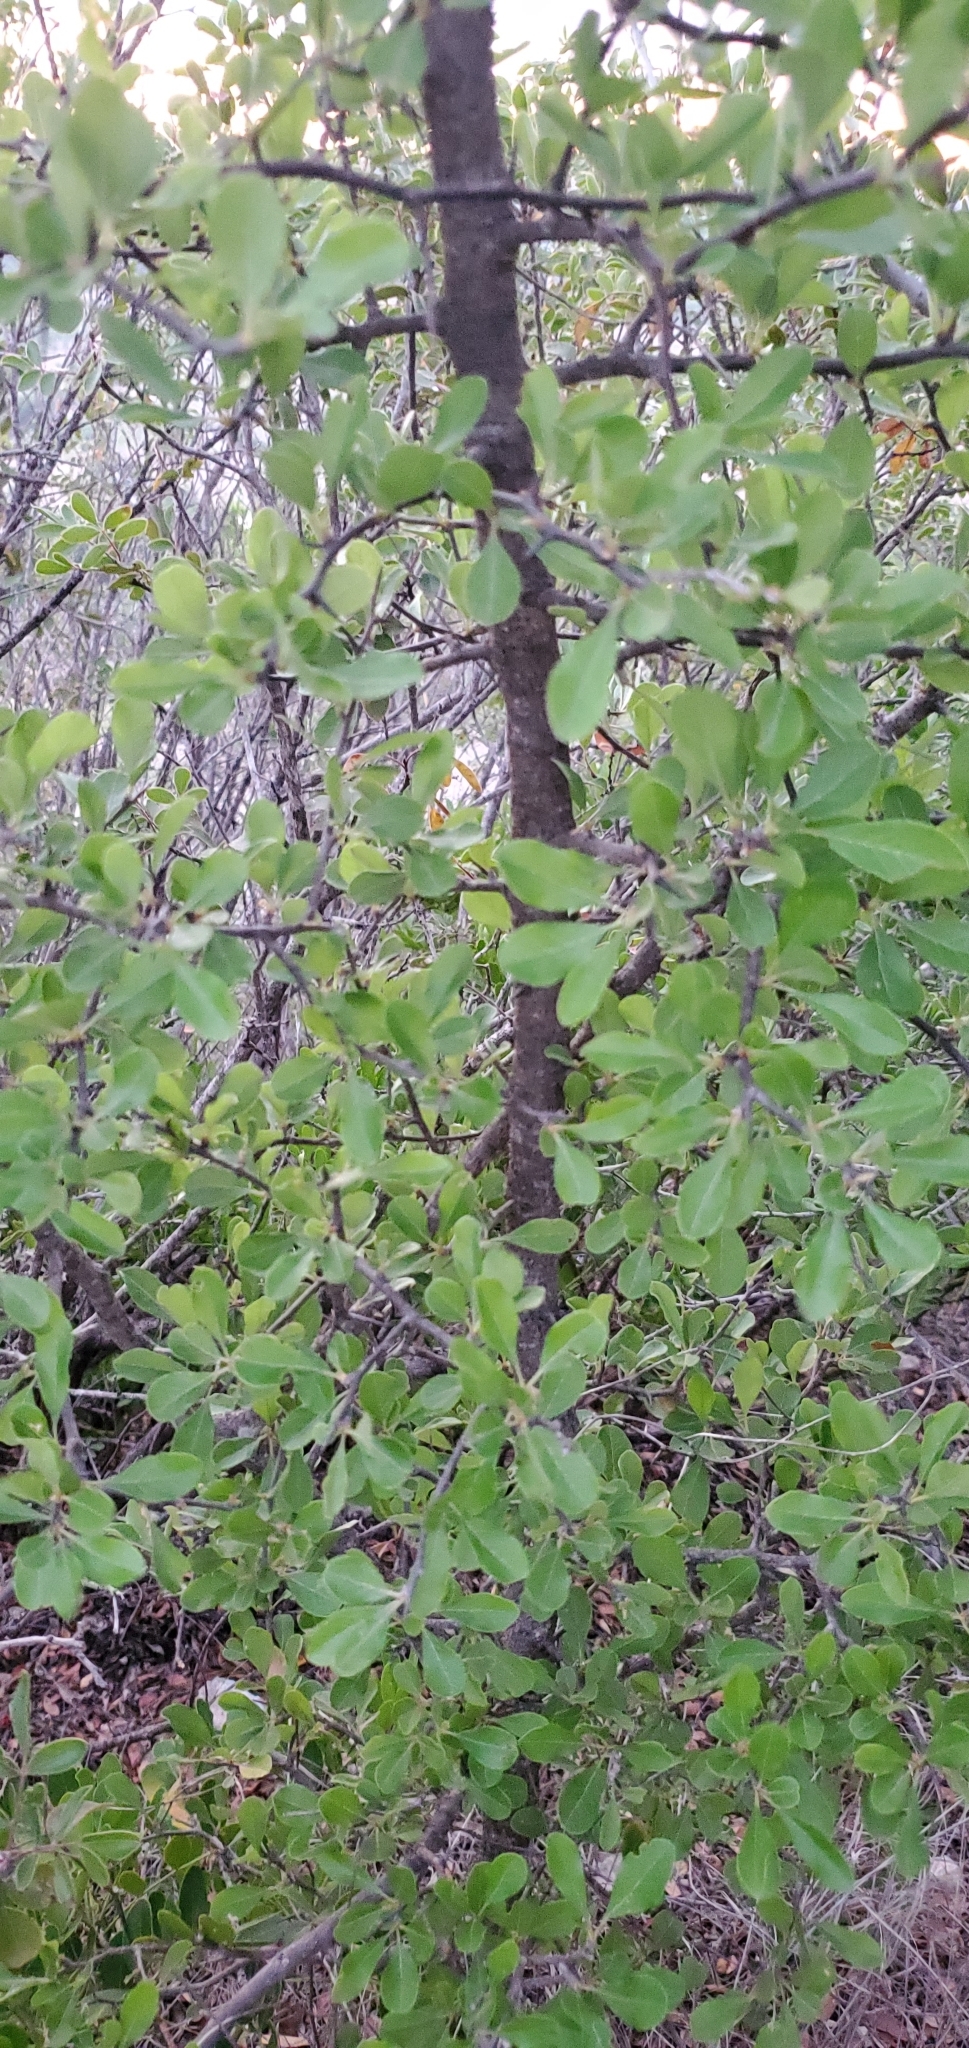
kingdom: Plantae
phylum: Tracheophyta
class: Magnoliopsida
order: Ericales
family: Sapotaceae
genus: Sideroxylon
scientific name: Sideroxylon lanuginosum
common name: Chittamwood
